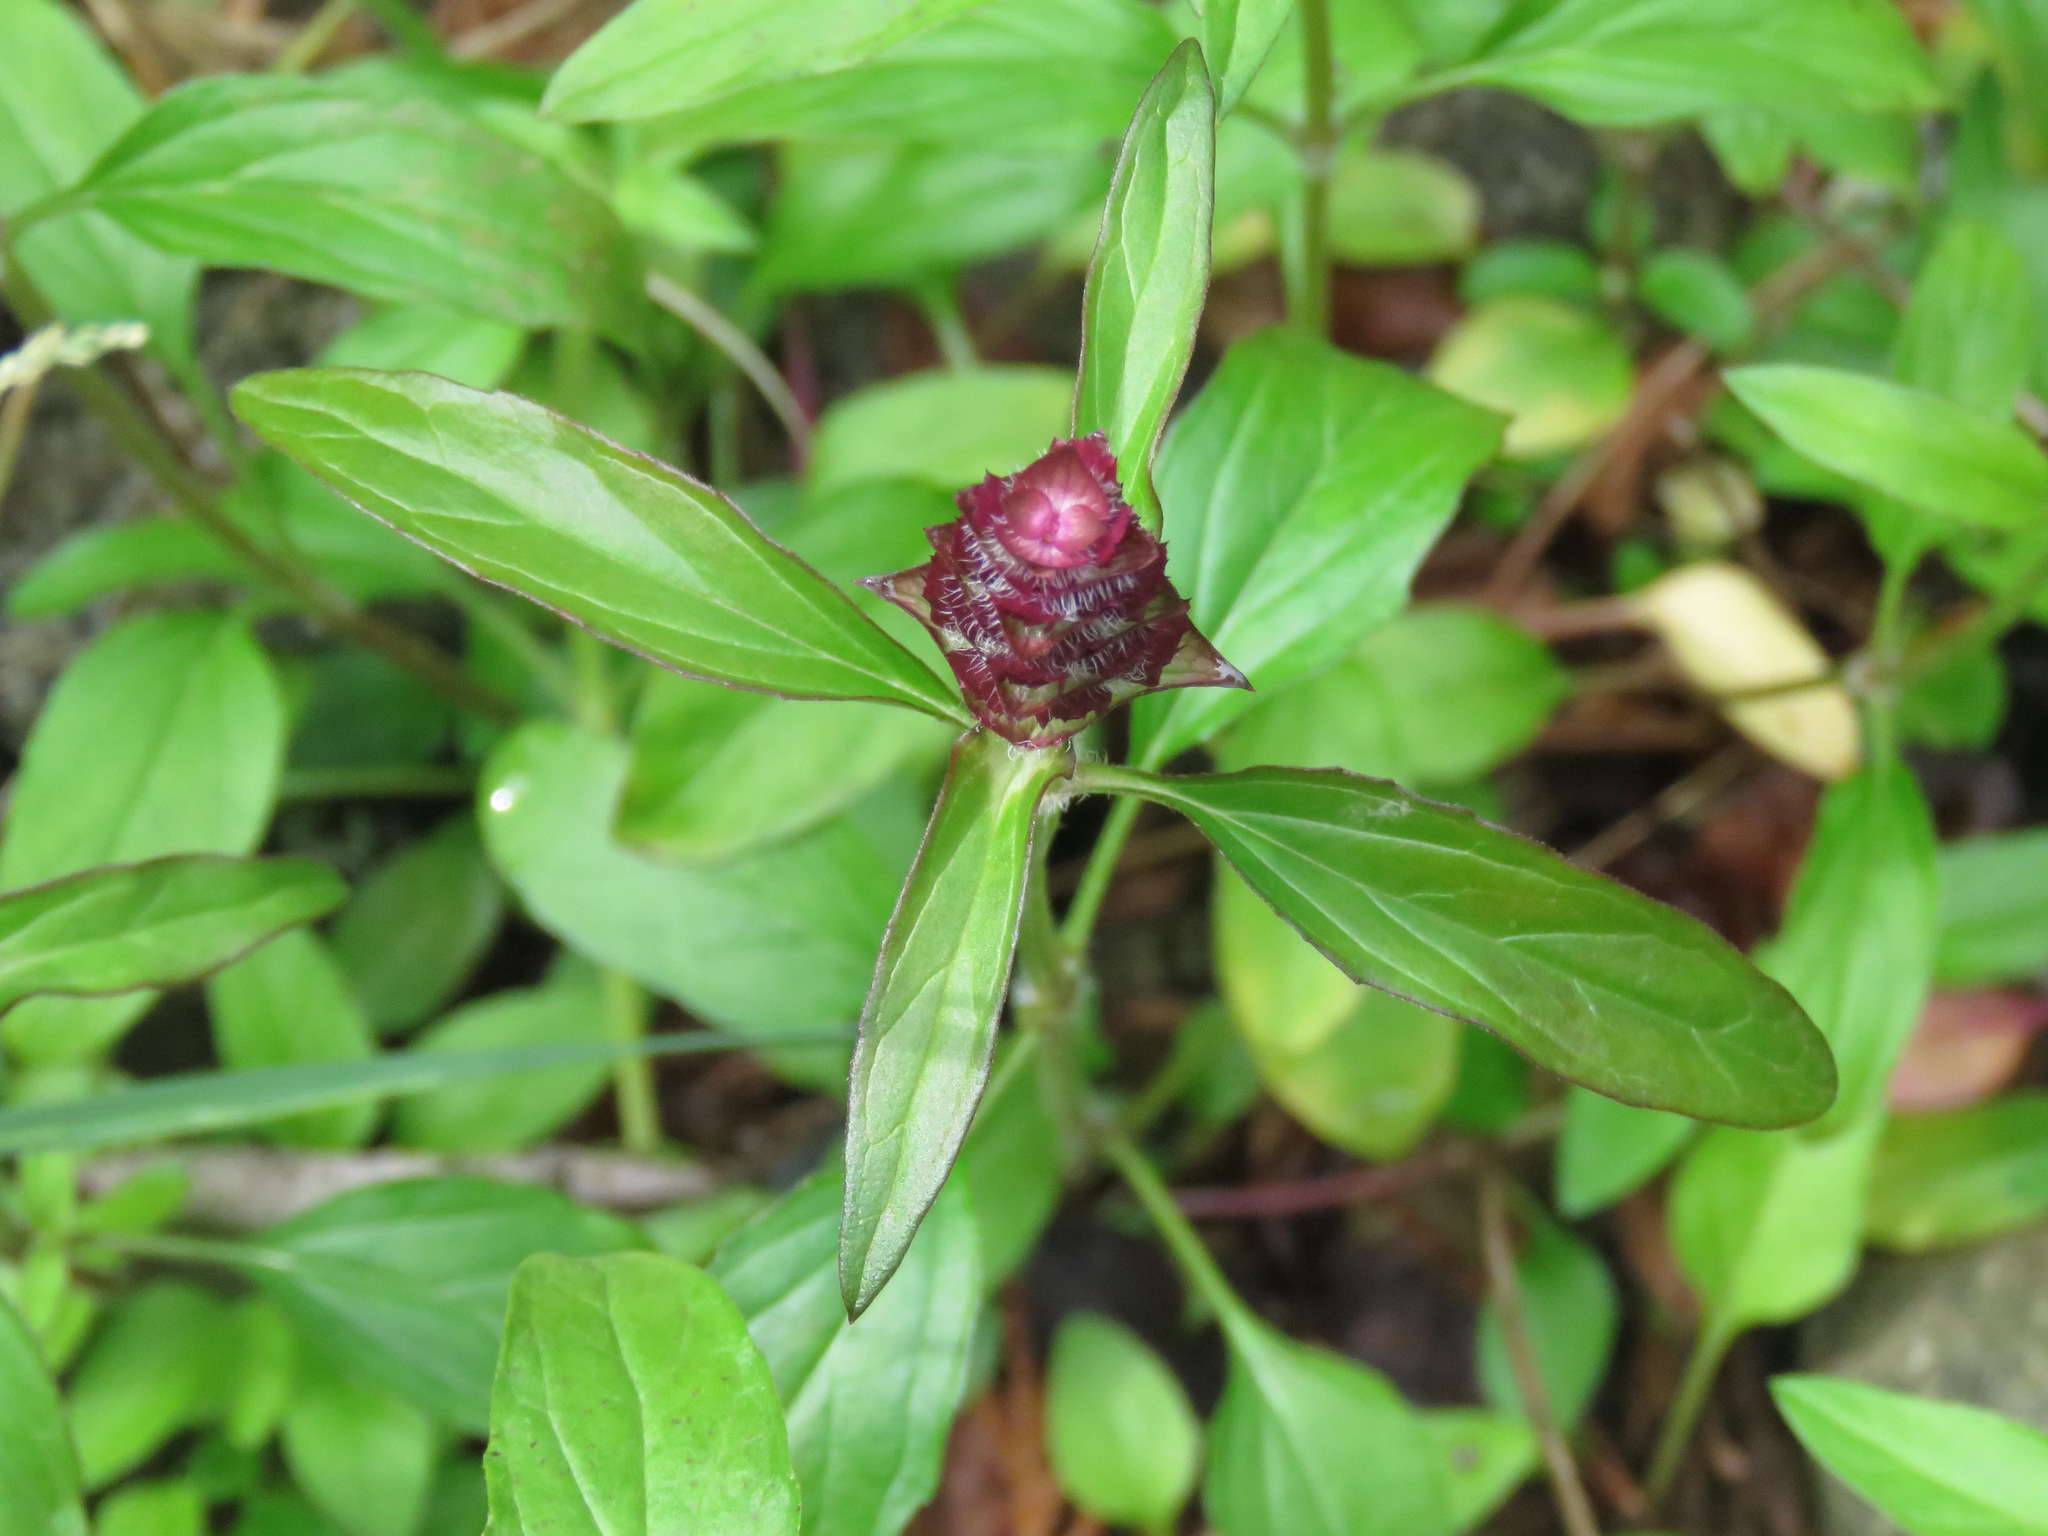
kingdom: Plantae
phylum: Tracheophyta
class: Magnoliopsida
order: Lamiales
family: Lamiaceae
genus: Prunella
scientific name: Prunella vulgaris
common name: Heal-all
